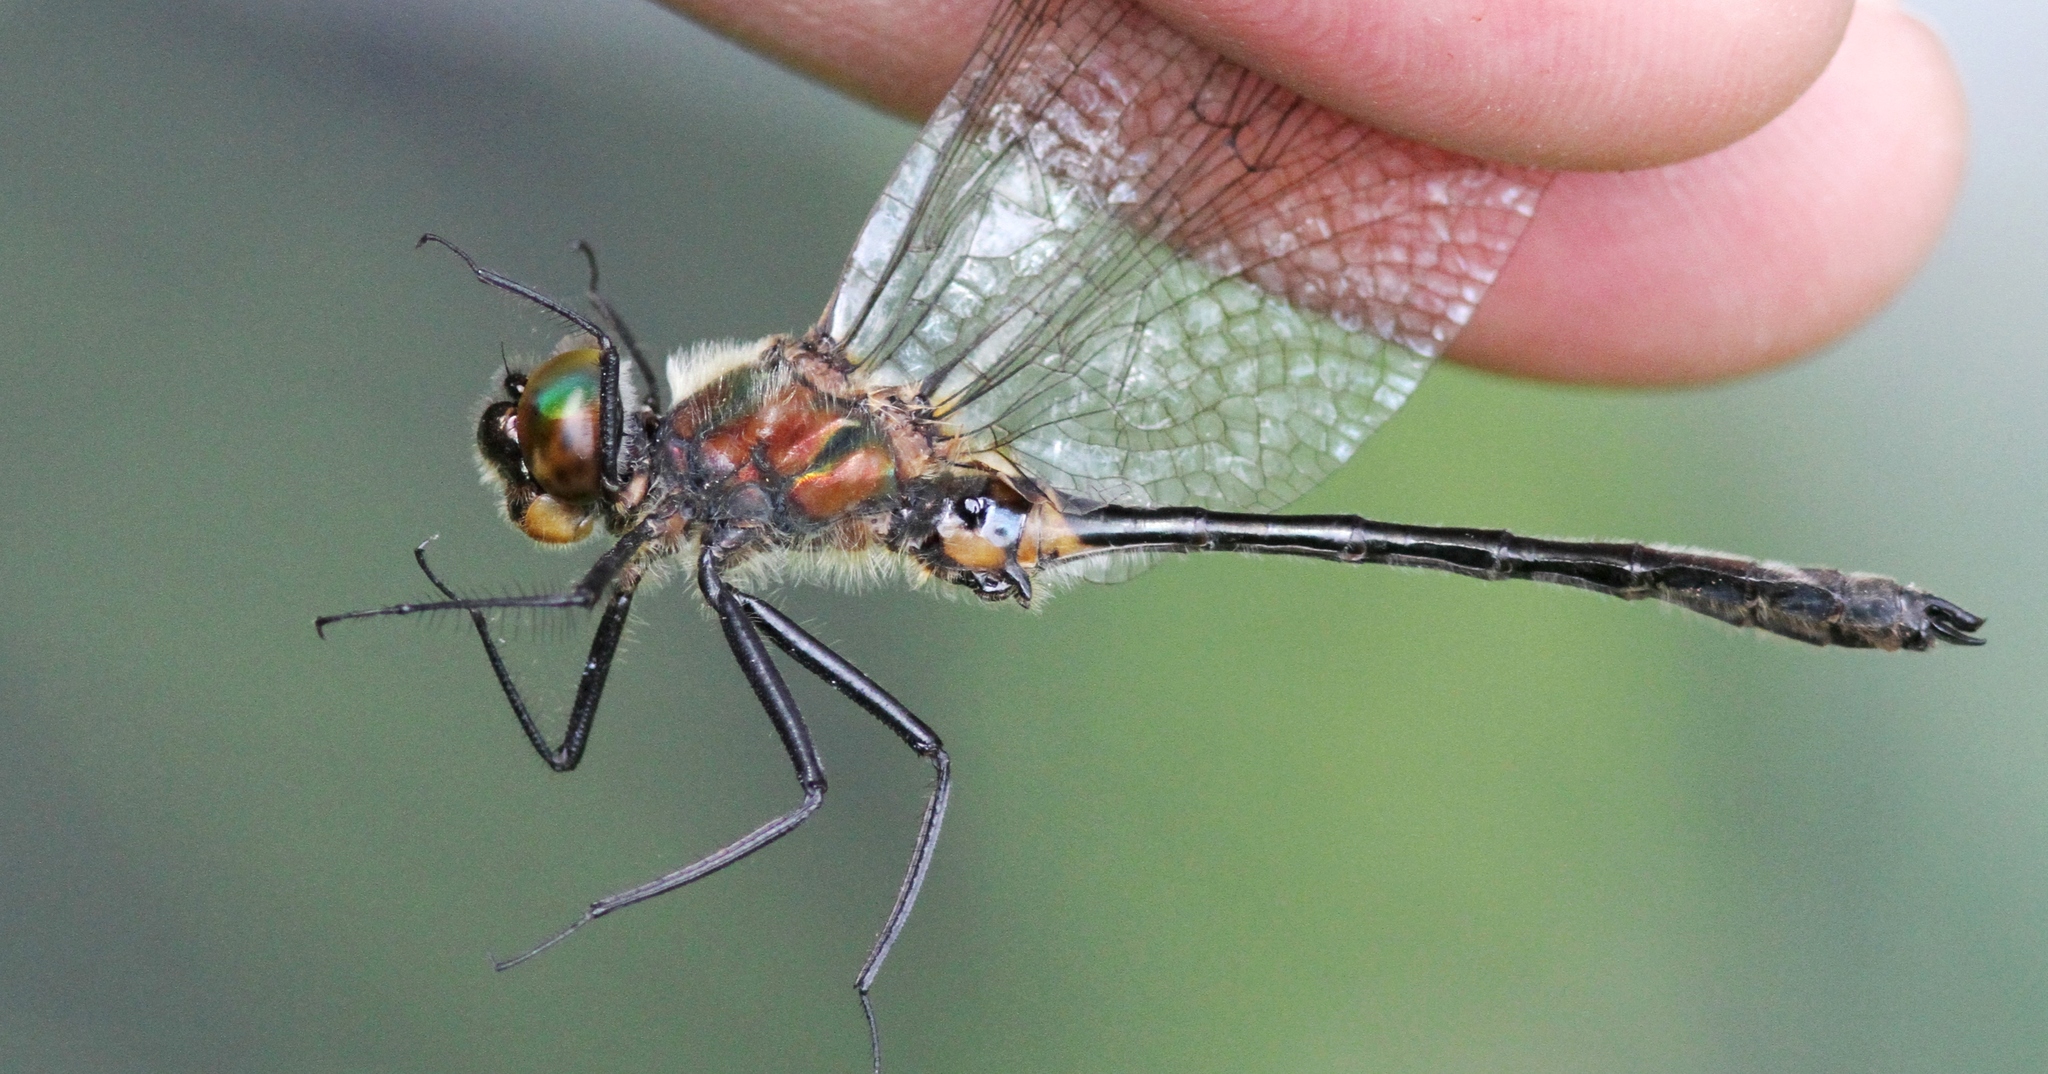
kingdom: Animalia
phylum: Arthropoda
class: Insecta
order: Odonata
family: Corduliidae
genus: Dorocordulia
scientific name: Dorocordulia libera
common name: Racket-tailed emerald
